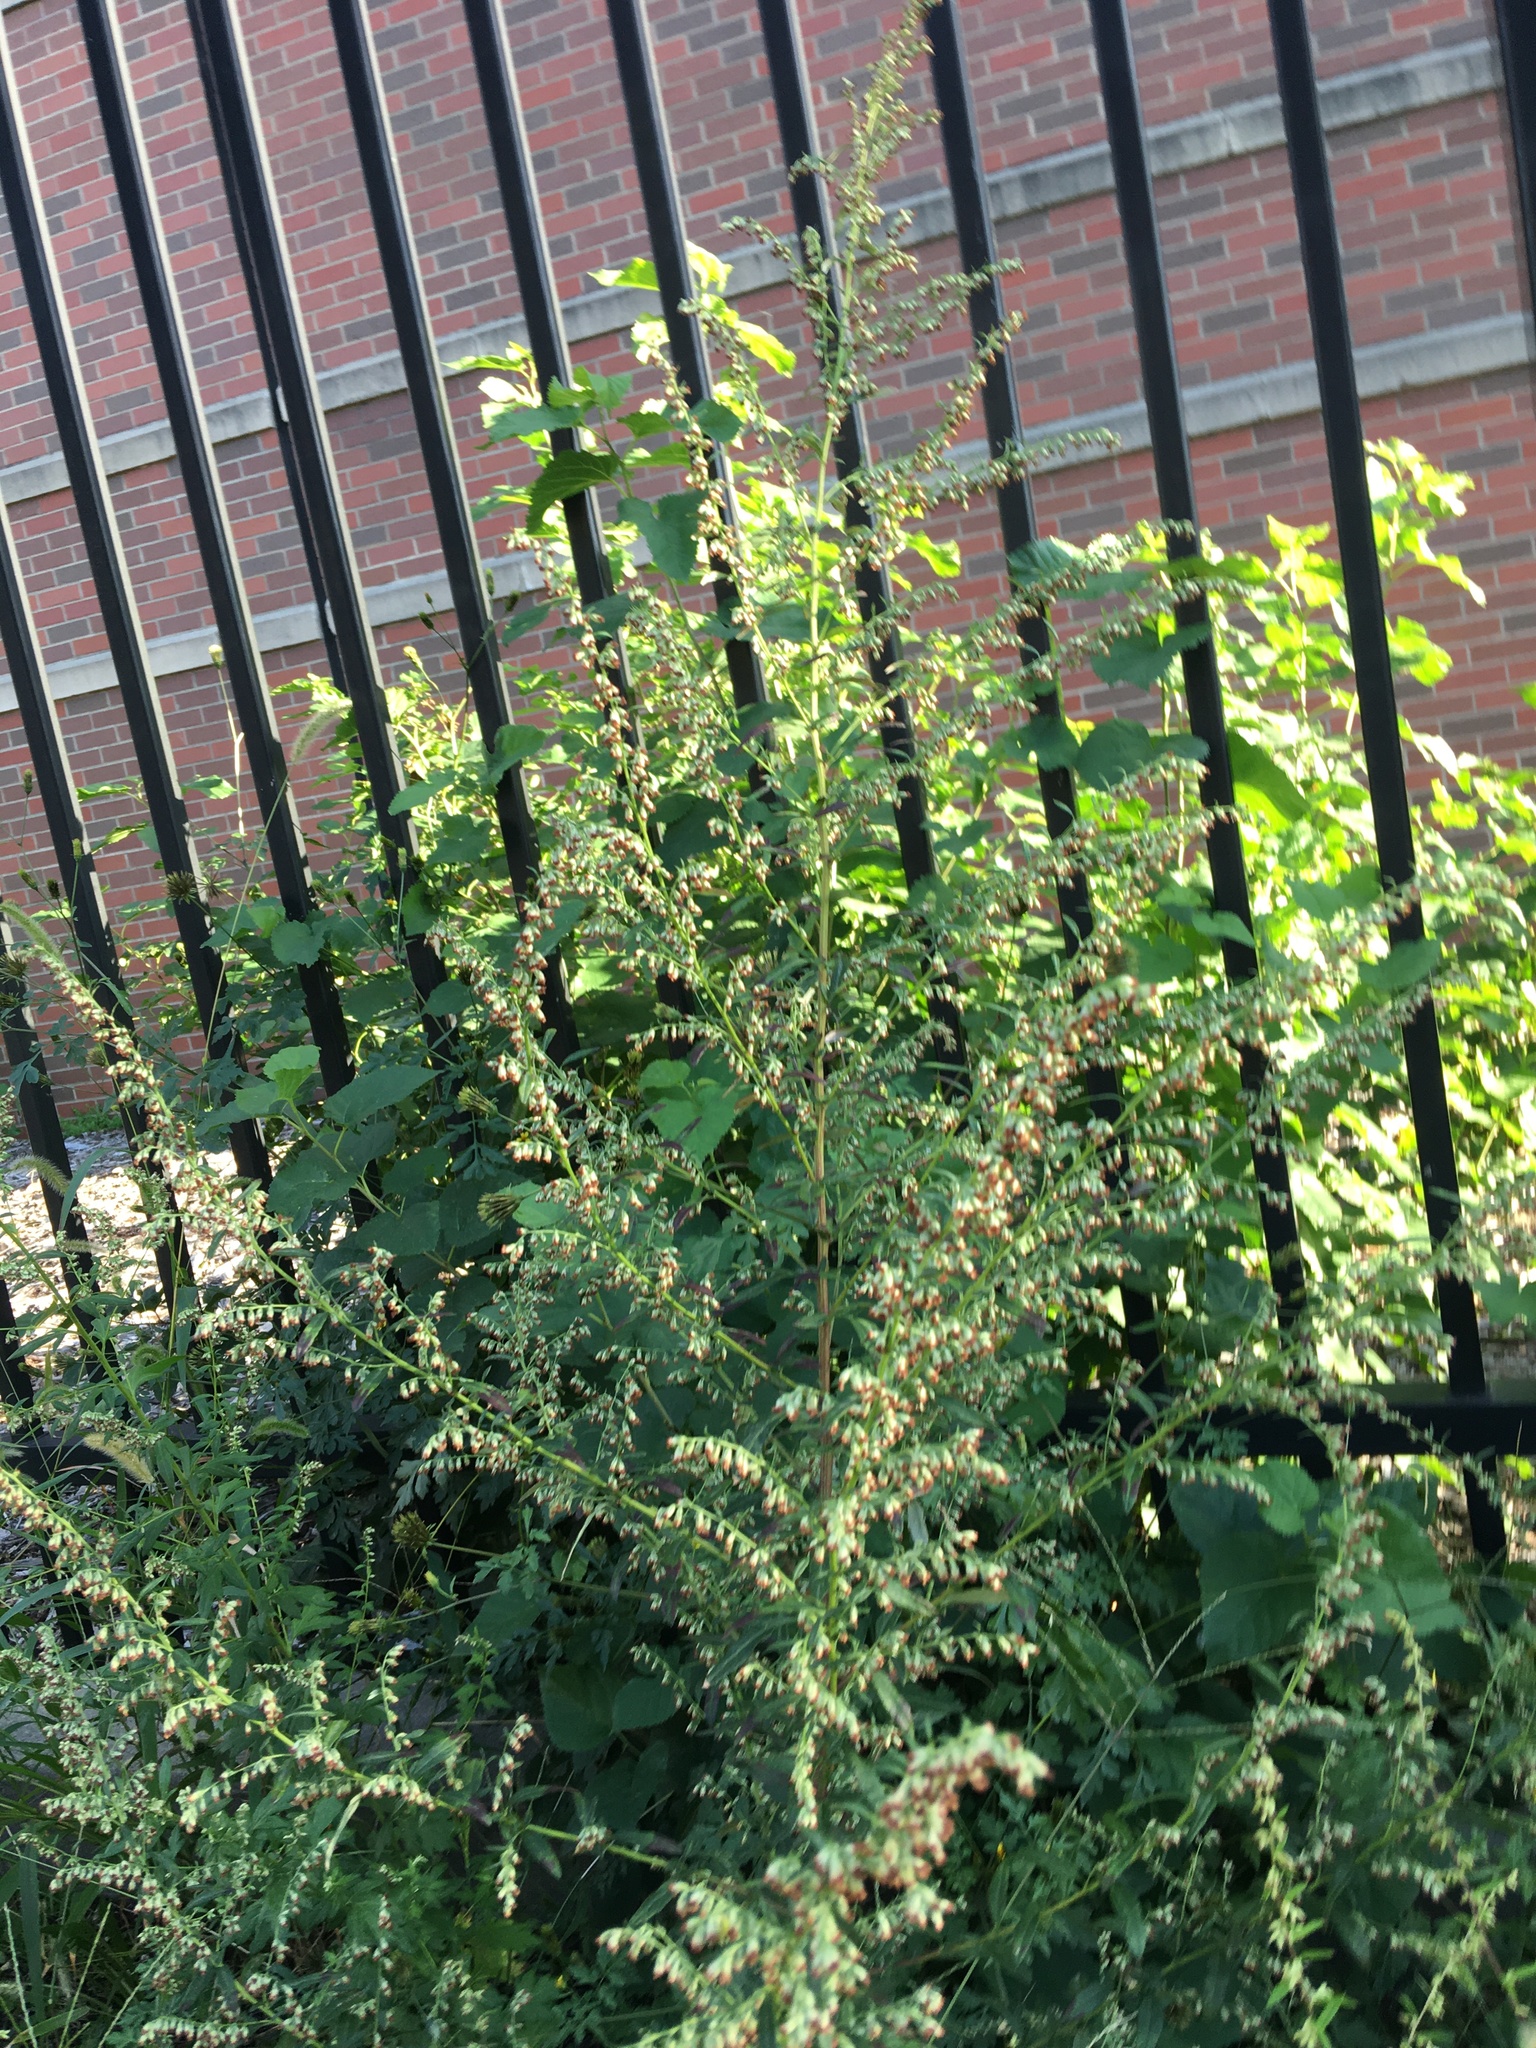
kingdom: Plantae
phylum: Tracheophyta
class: Magnoliopsida
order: Asterales
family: Asteraceae
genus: Artemisia
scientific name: Artemisia vulgaris
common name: Mugwort
